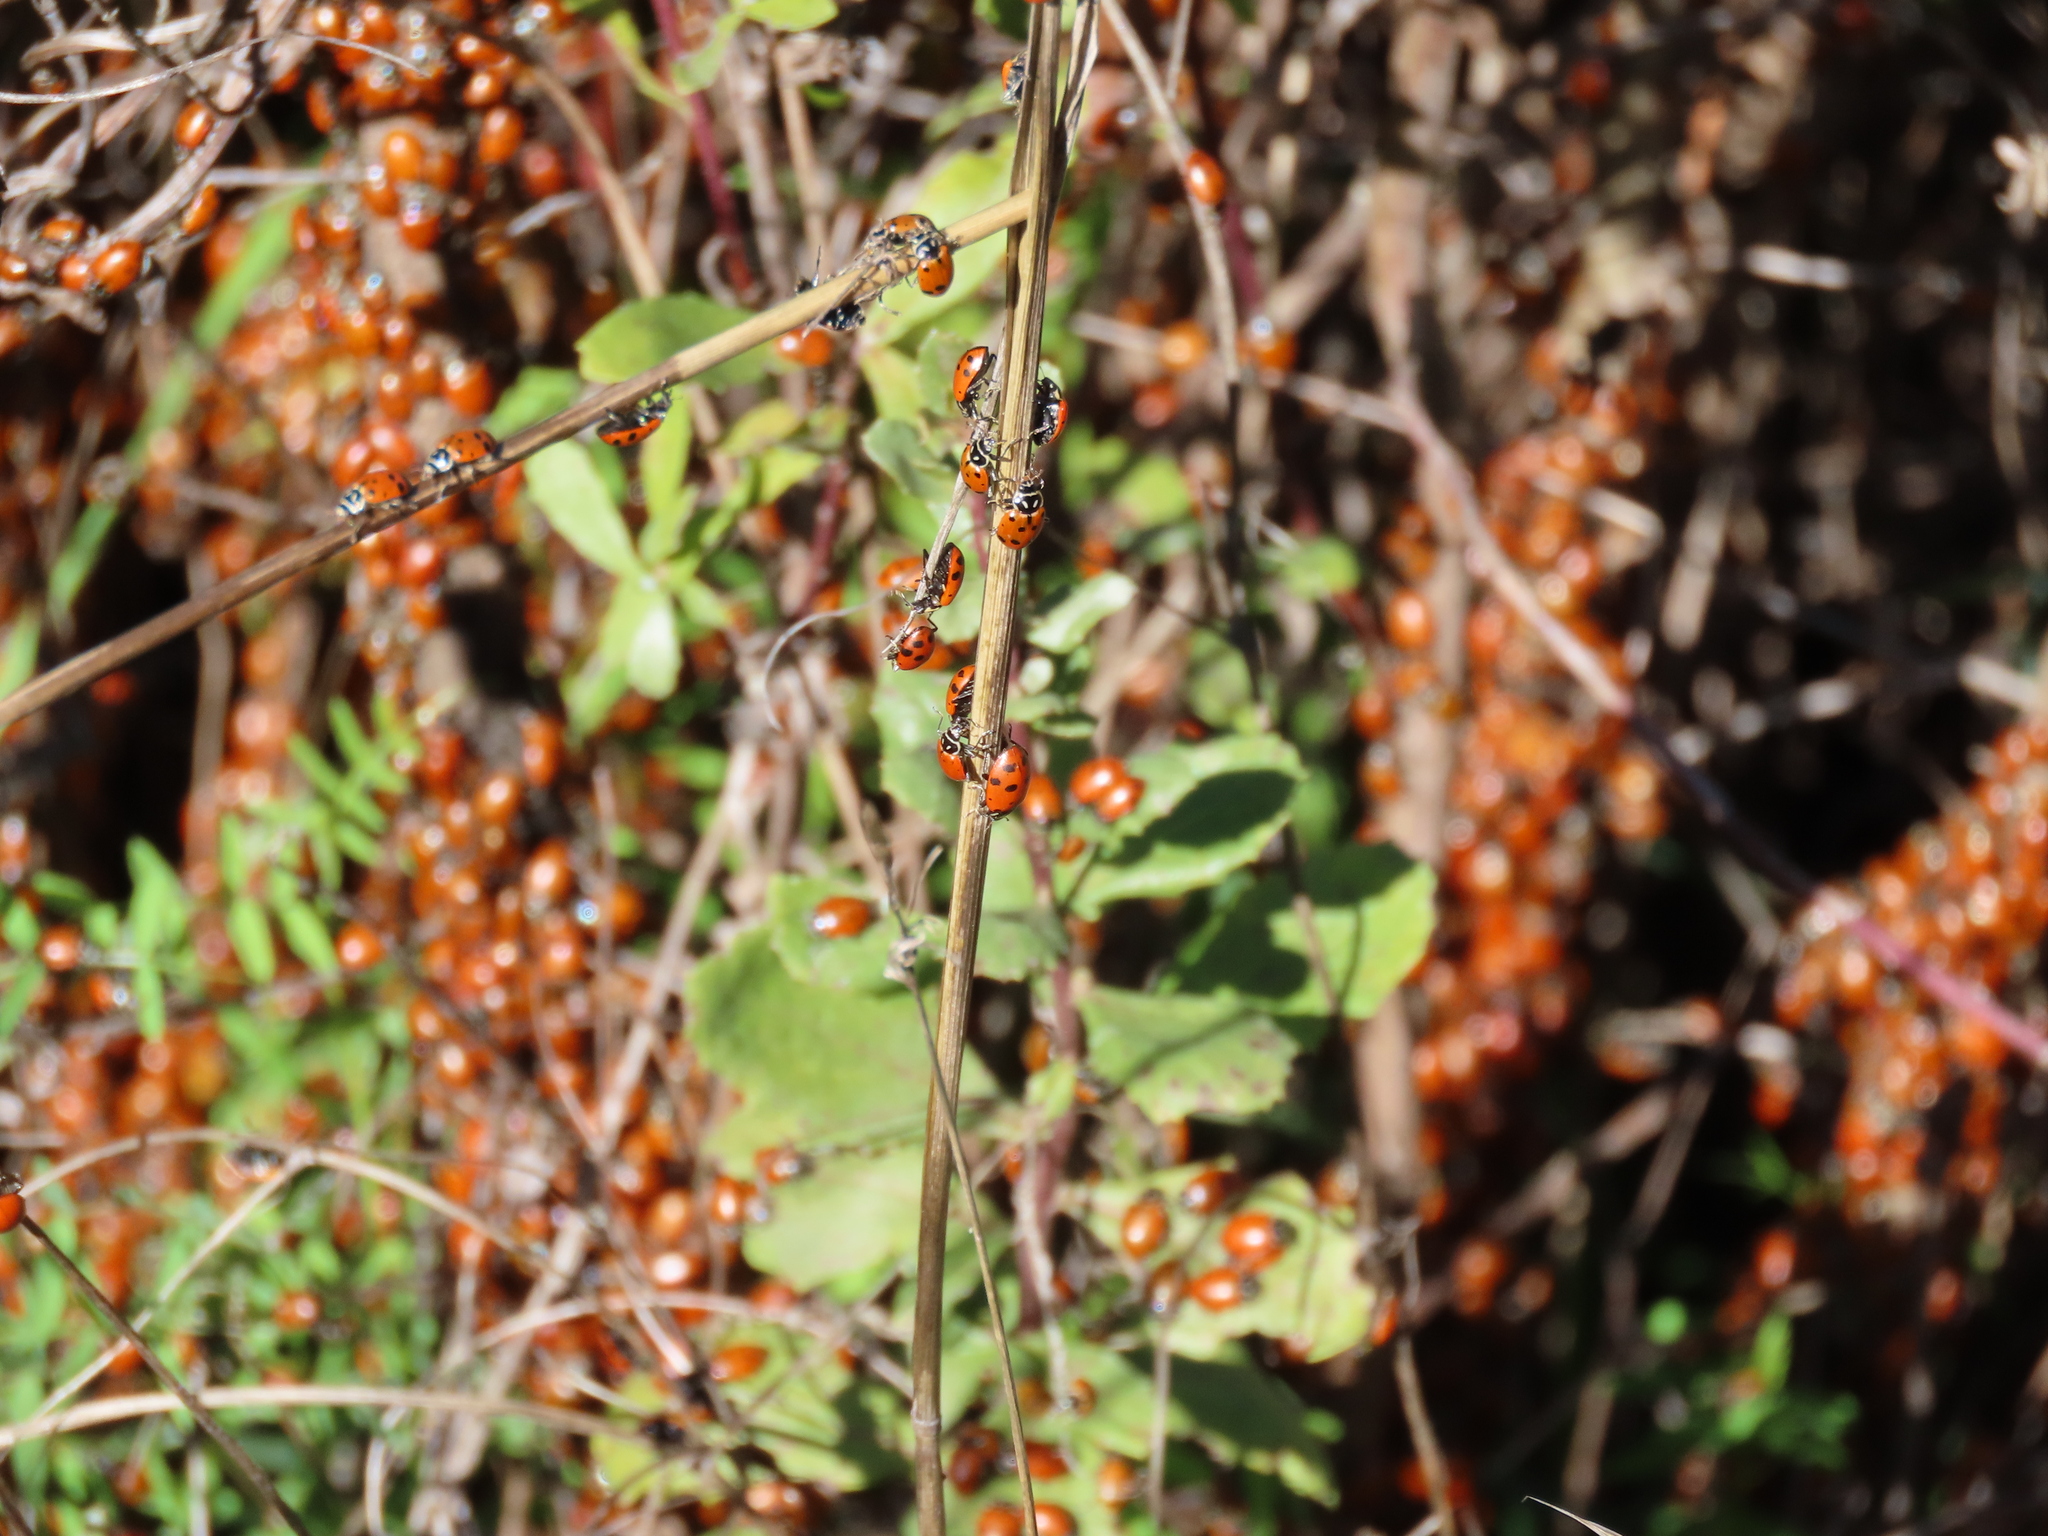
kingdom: Animalia
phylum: Arthropoda
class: Insecta
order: Coleoptera
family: Coccinellidae
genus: Hippodamia
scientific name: Hippodamia convergens
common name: Convergent lady beetle
